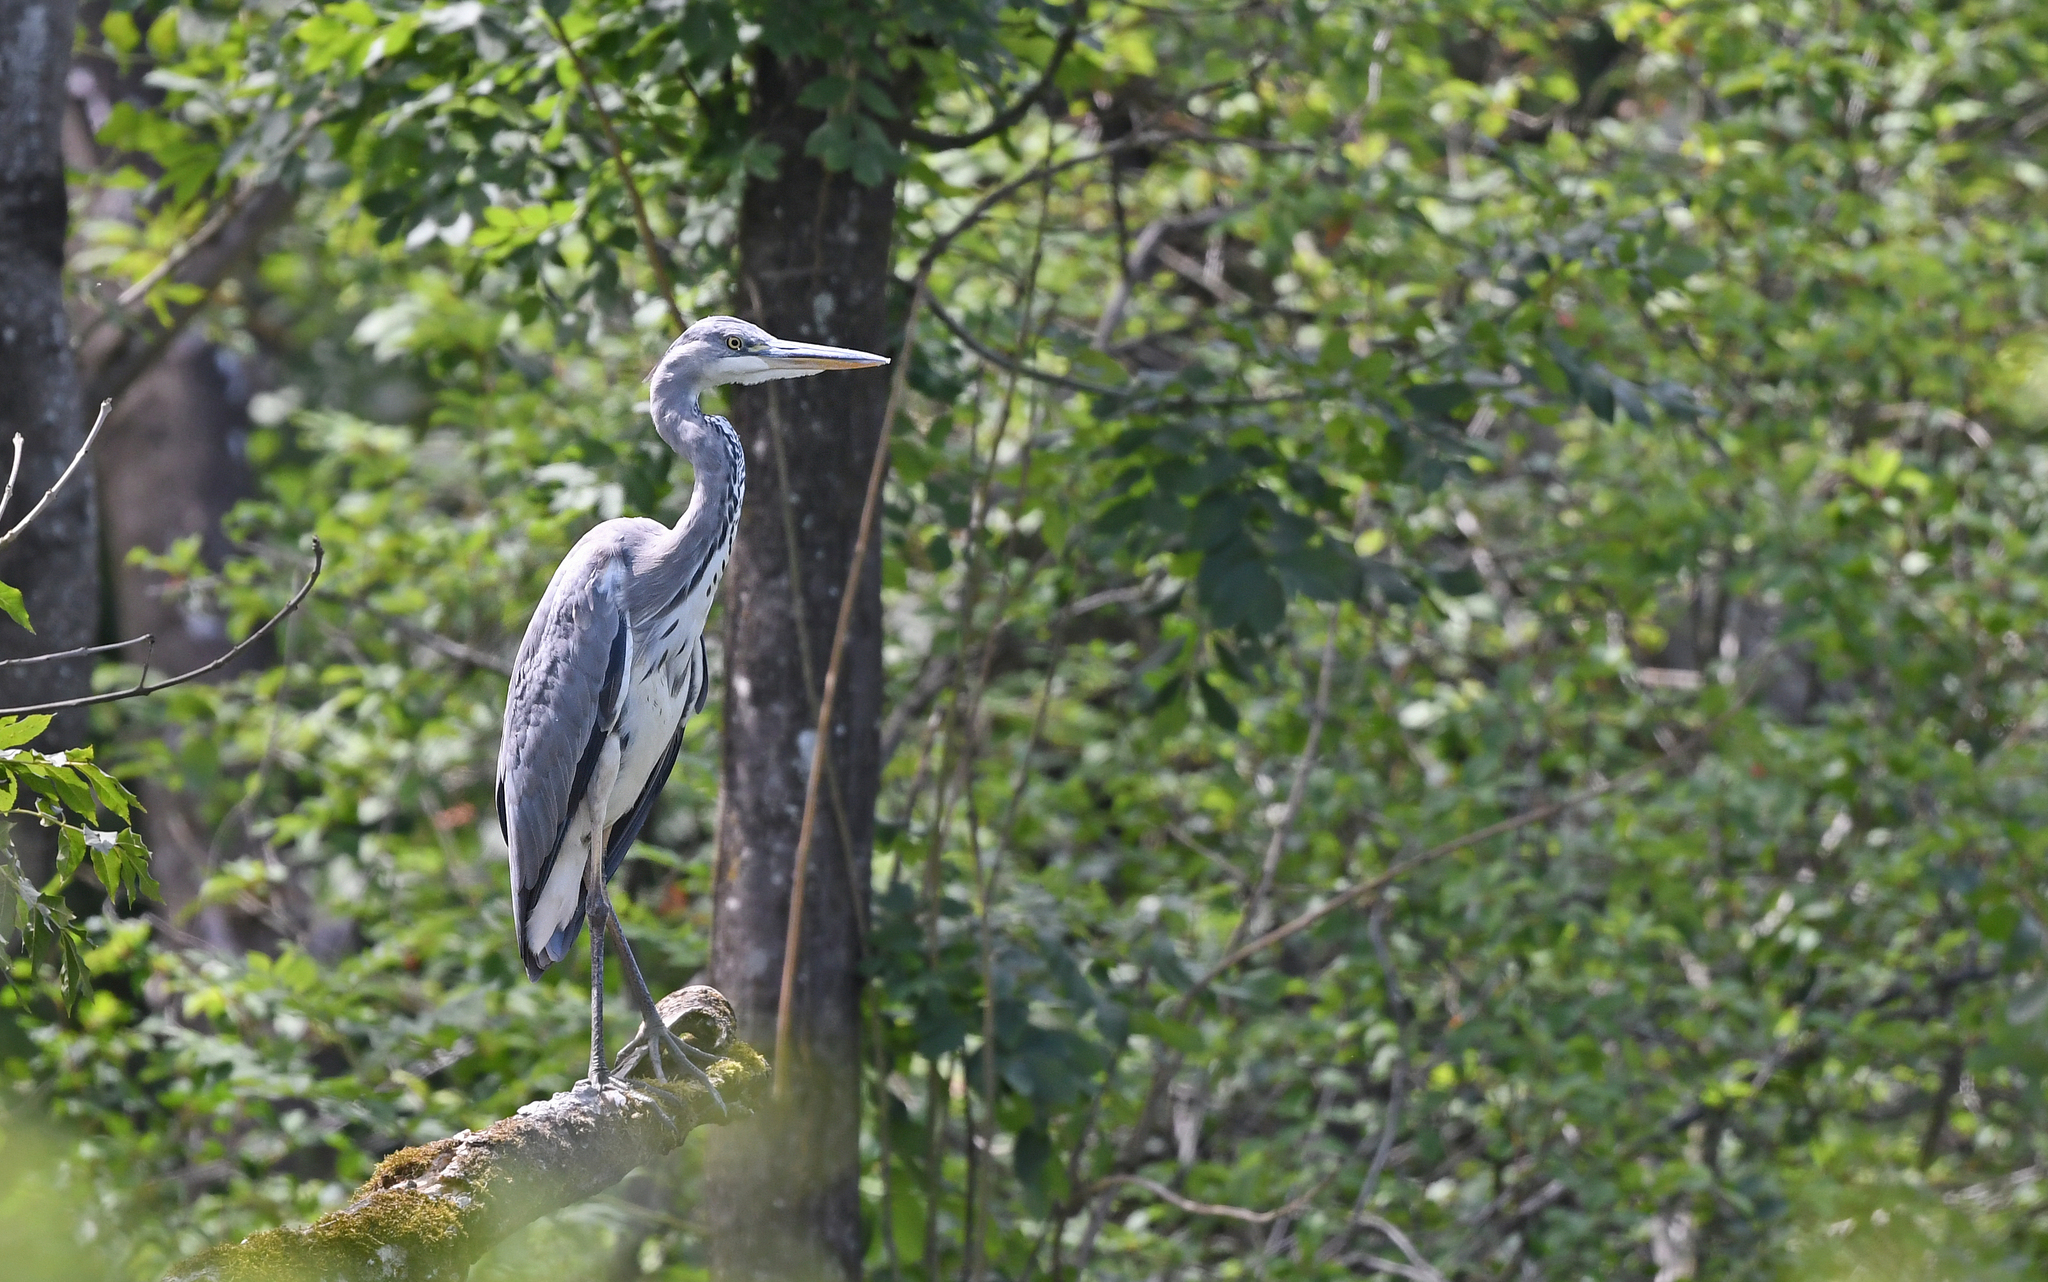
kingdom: Animalia
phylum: Chordata
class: Aves
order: Pelecaniformes
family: Ardeidae
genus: Ardea
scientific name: Ardea cinerea
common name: Grey heron
